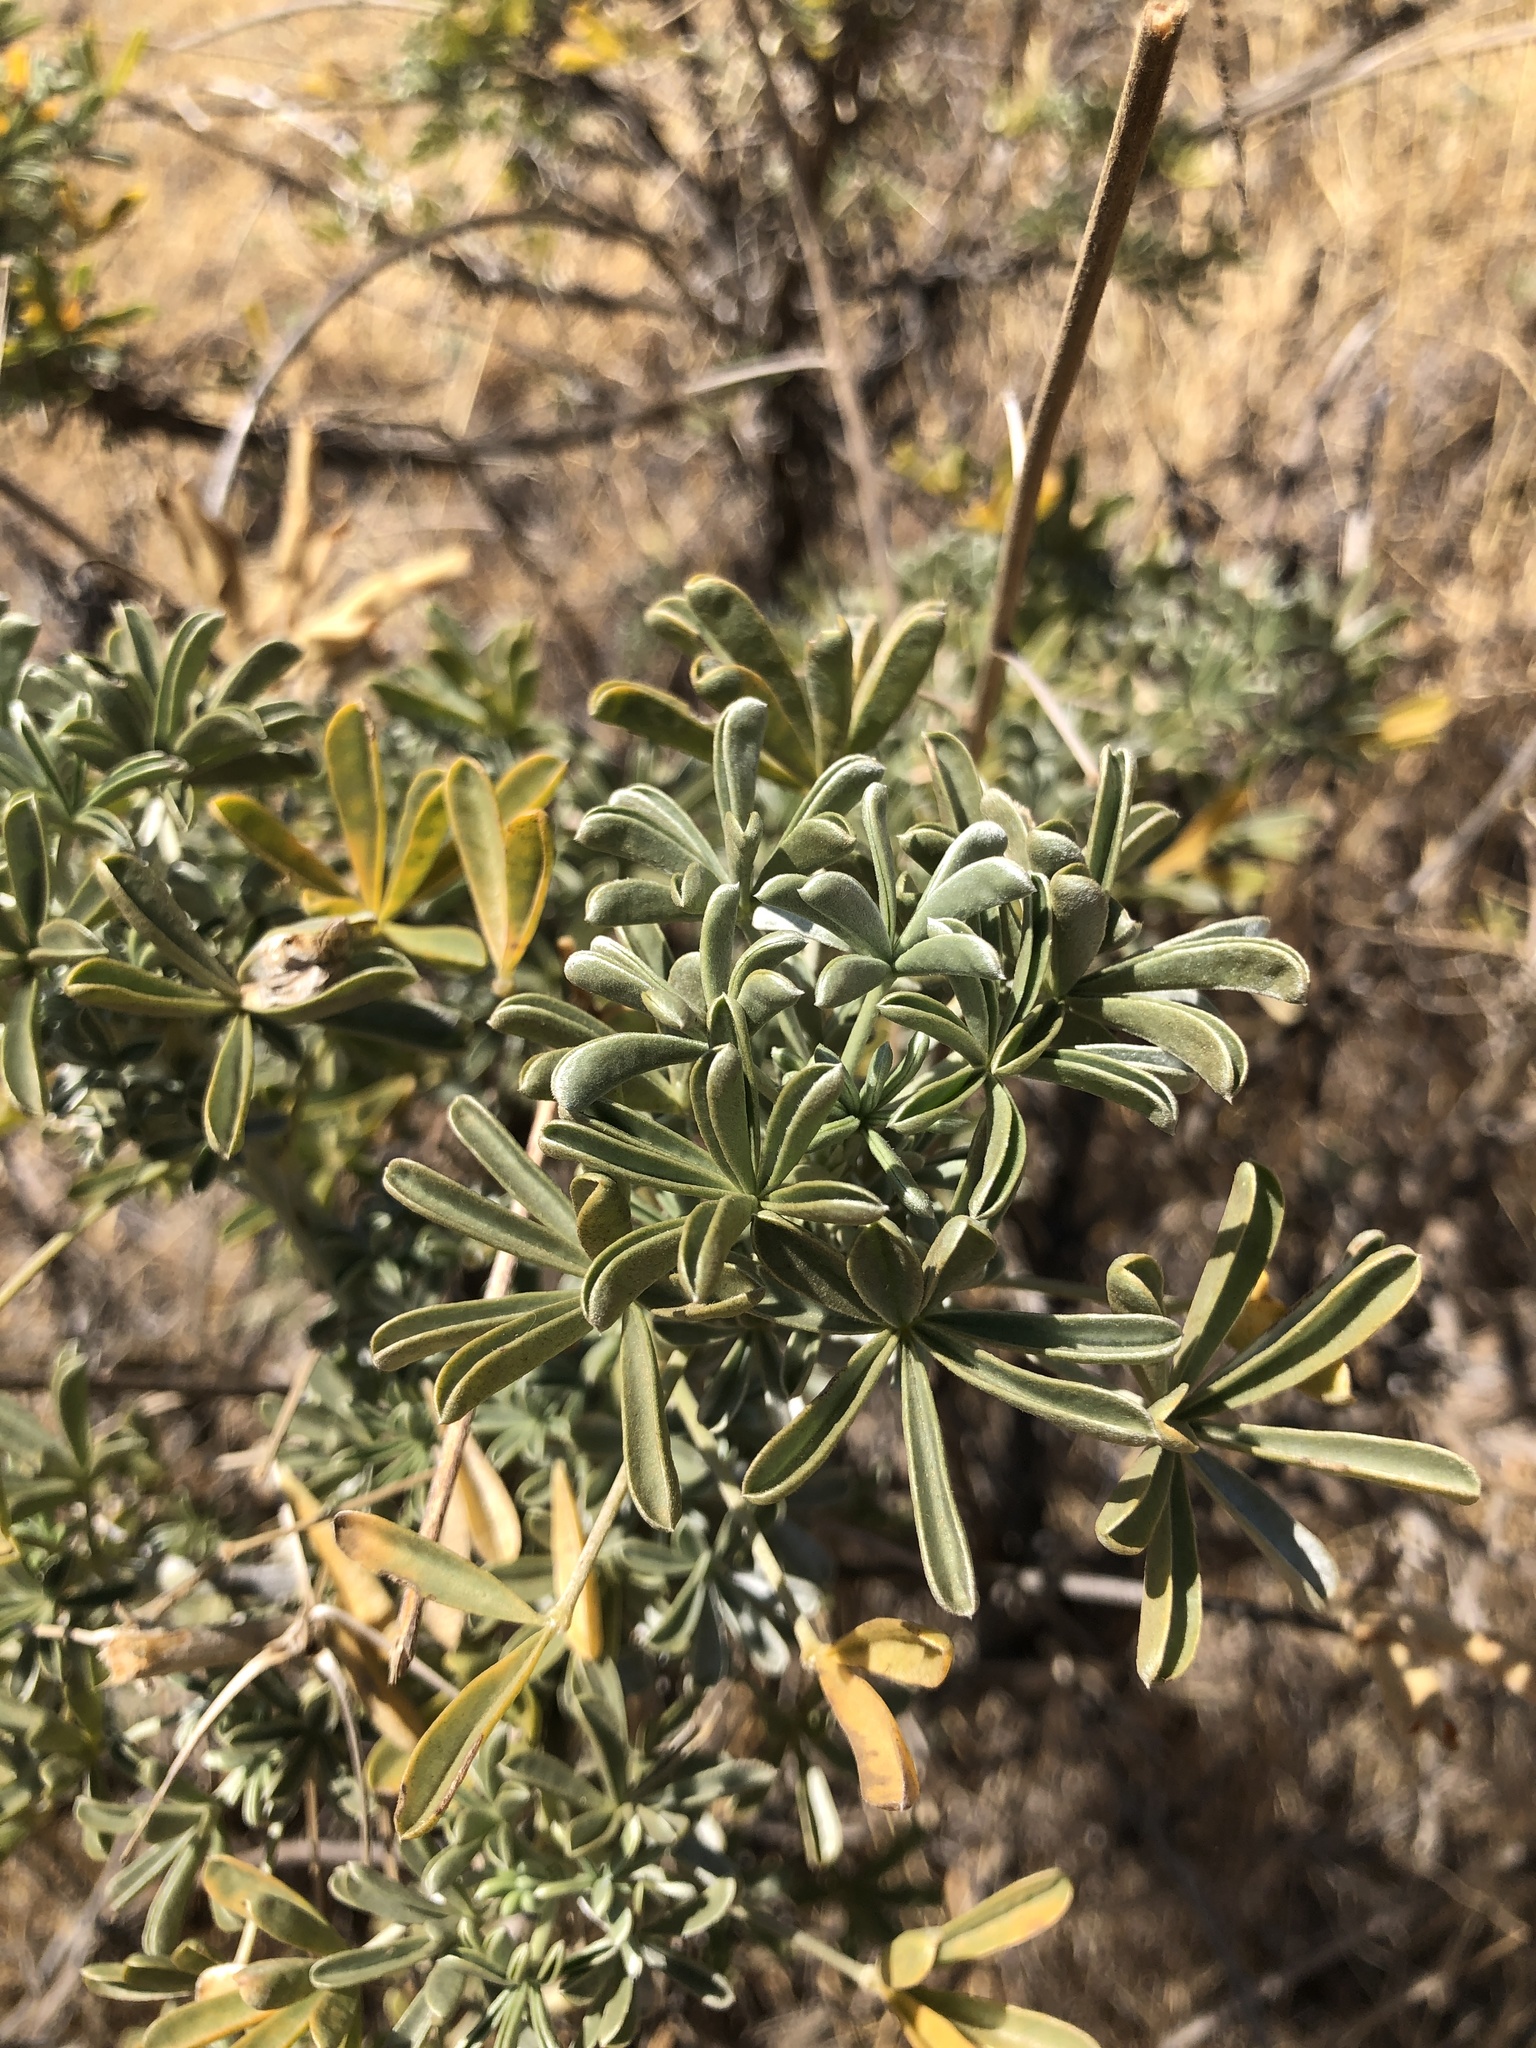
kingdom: Plantae
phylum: Tracheophyta
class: Magnoliopsida
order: Fabales
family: Fabaceae
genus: Lupinus
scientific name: Lupinus albifrons
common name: Foothill lupine
